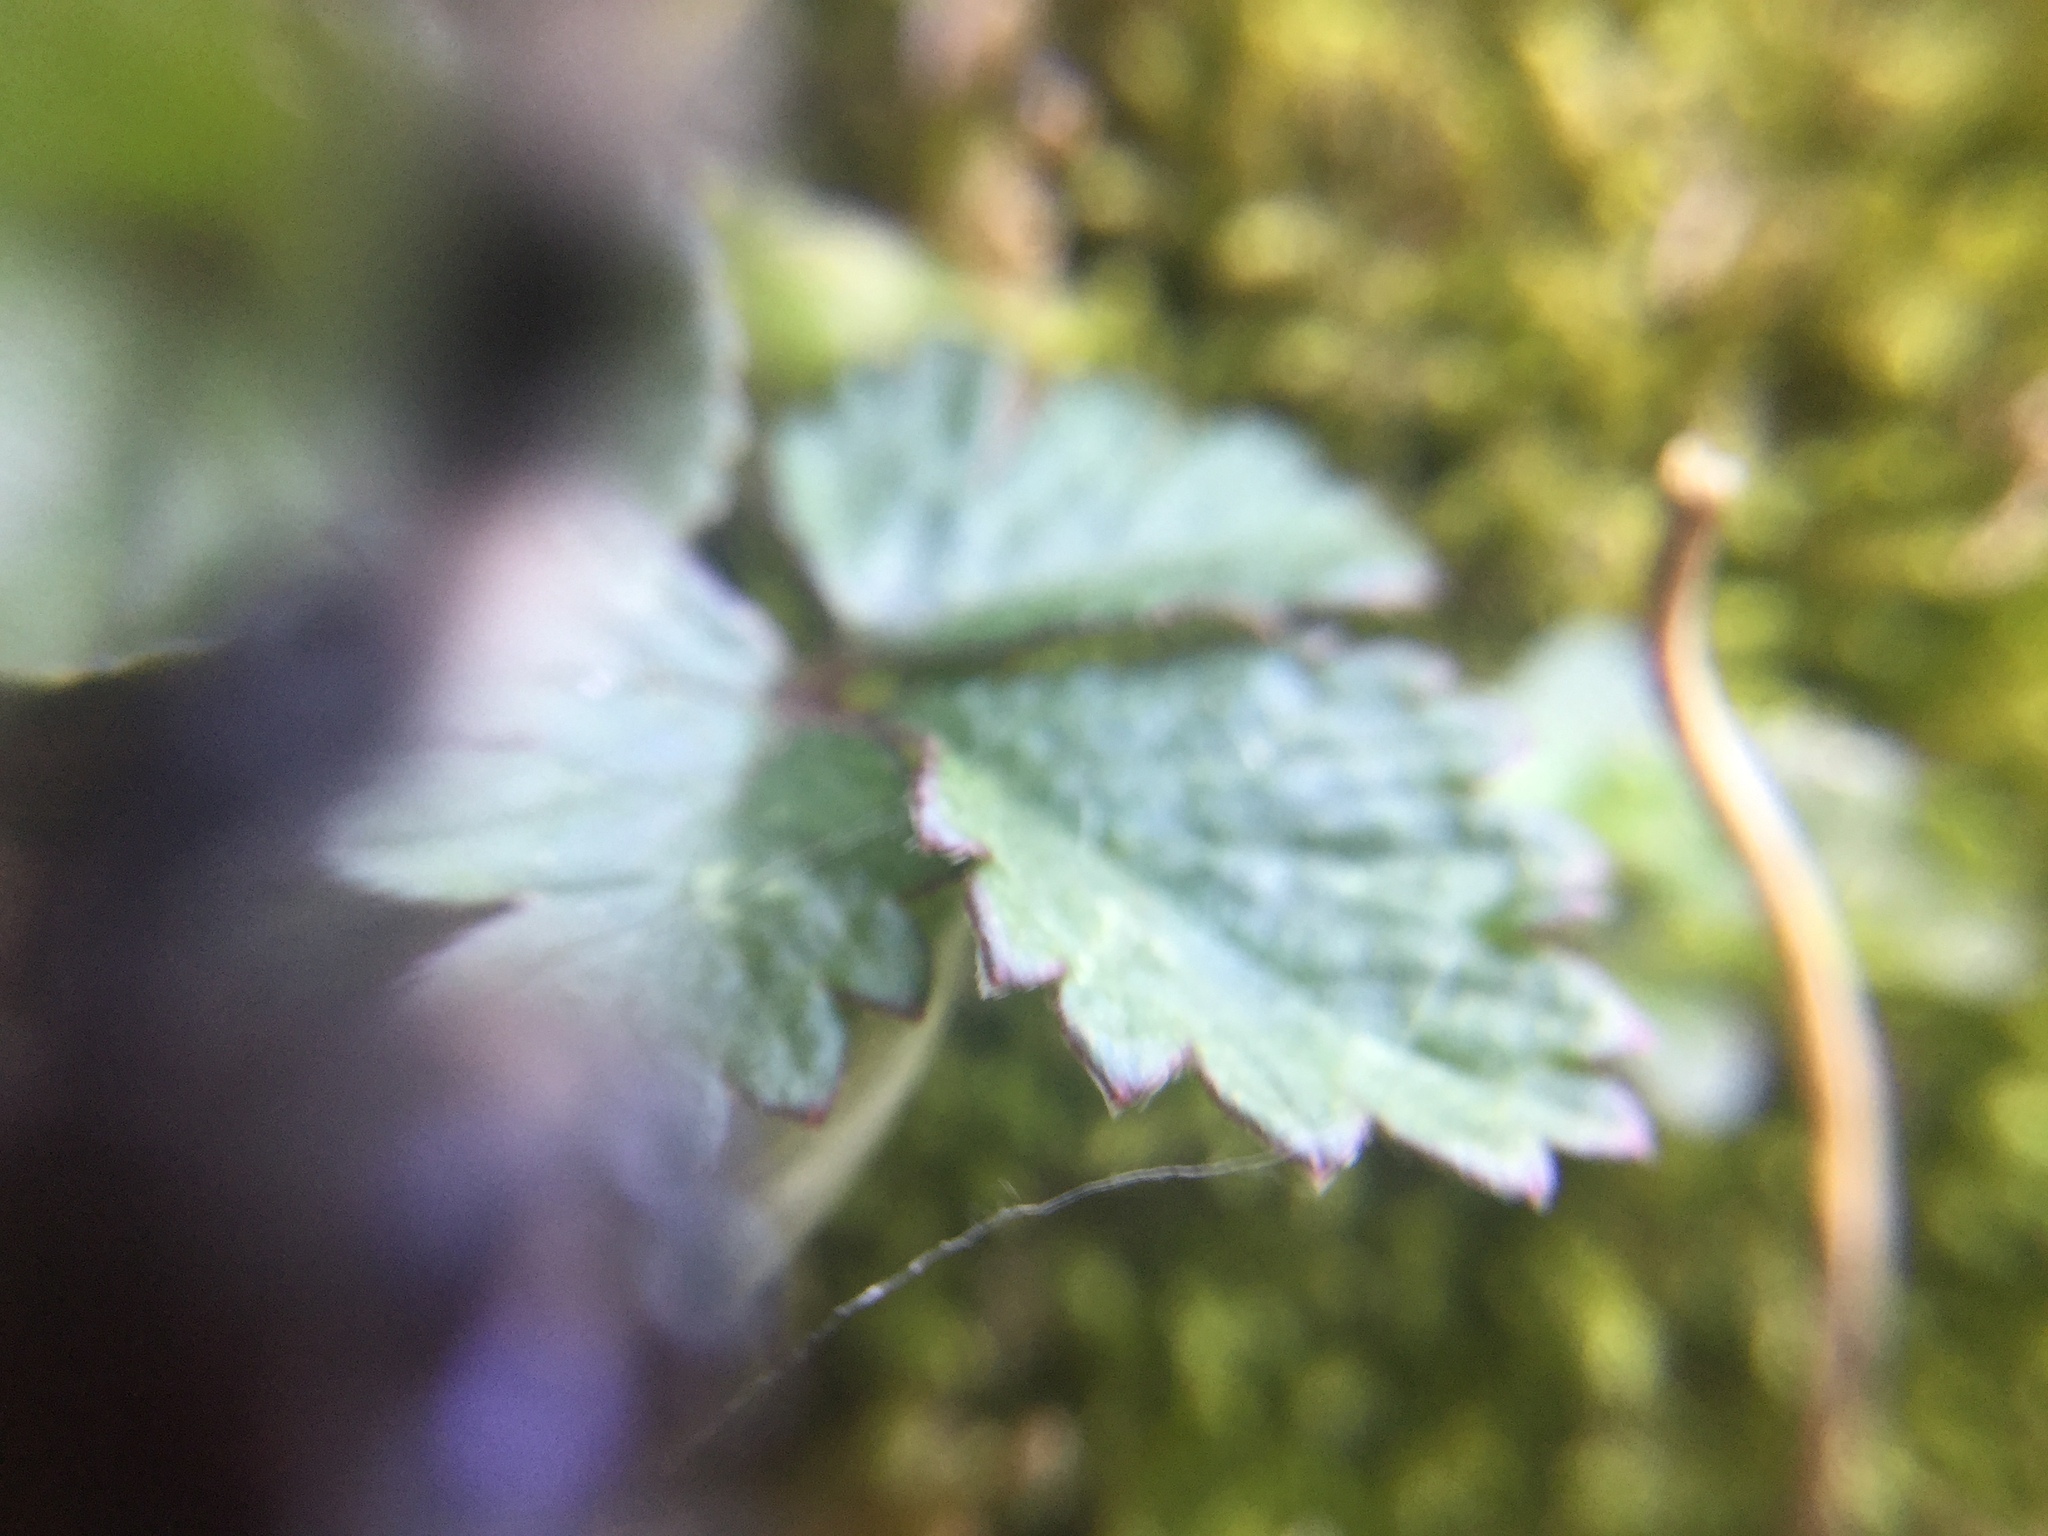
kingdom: Animalia
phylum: Arthropoda
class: Arachnida
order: Araneae
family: Salticidae
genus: Phidippus
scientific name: Phidippus audax
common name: Bold jumper
